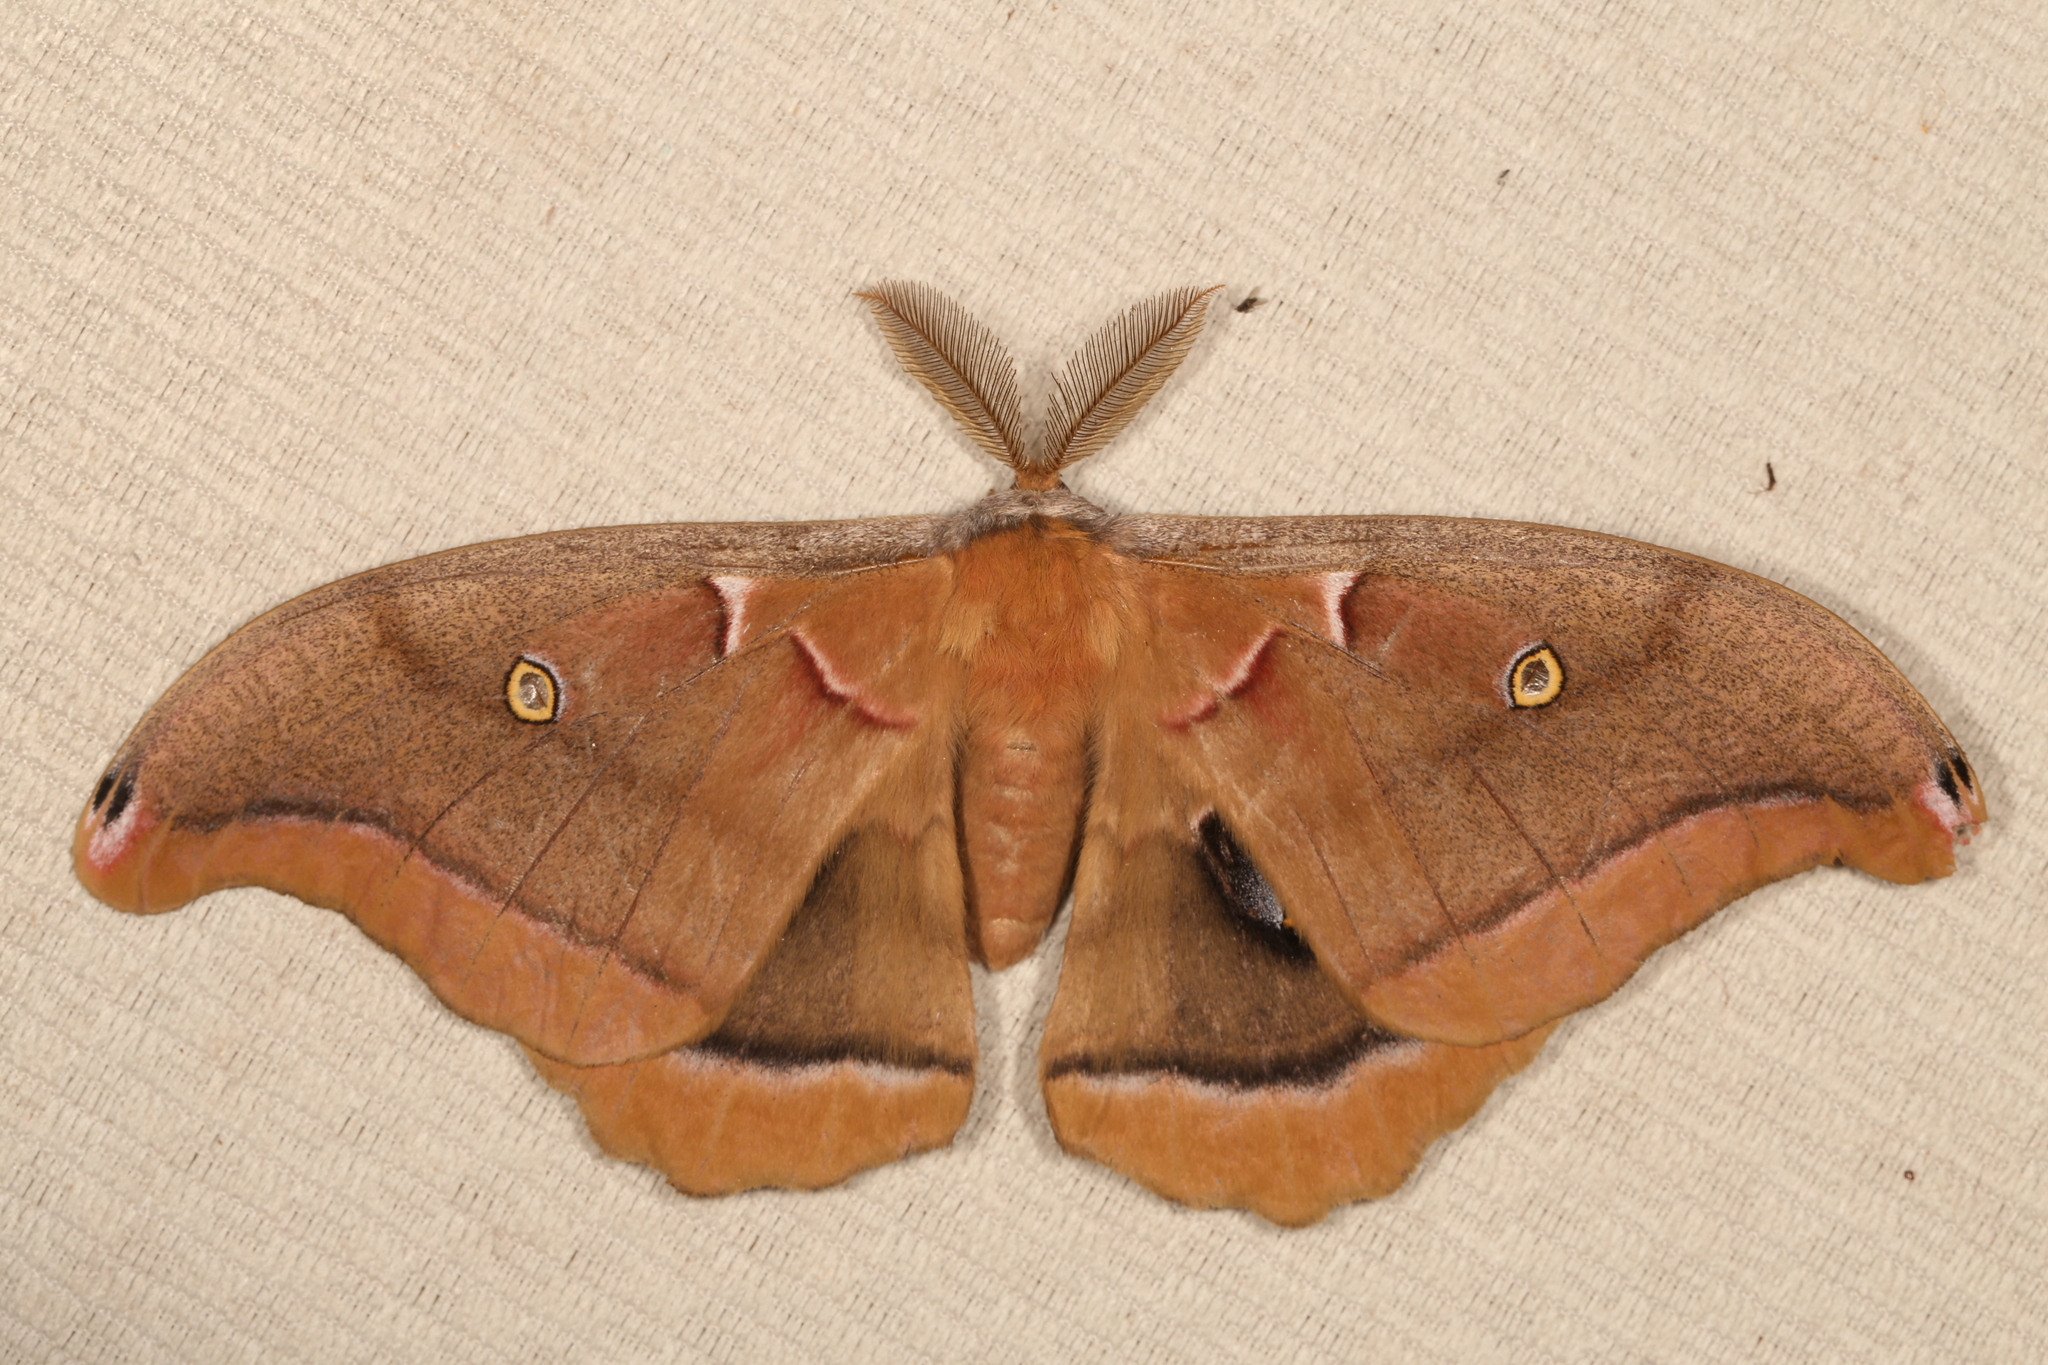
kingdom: Animalia
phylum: Arthropoda
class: Insecta
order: Lepidoptera
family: Saturniidae
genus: Antheraea
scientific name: Antheraea polyphemus
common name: Polyphemus moth
